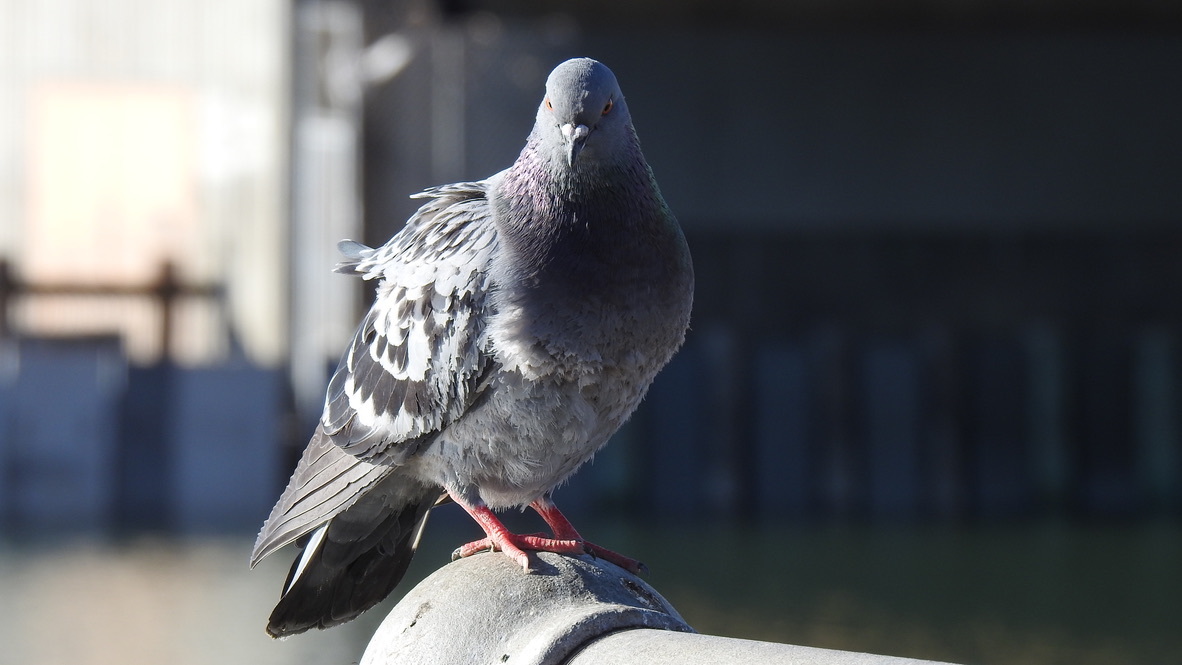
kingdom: Animalia
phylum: Chordata
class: Aves
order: Columbiformes
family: Columbidae
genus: Columba
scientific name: Columba livia
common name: Rock pigeon
